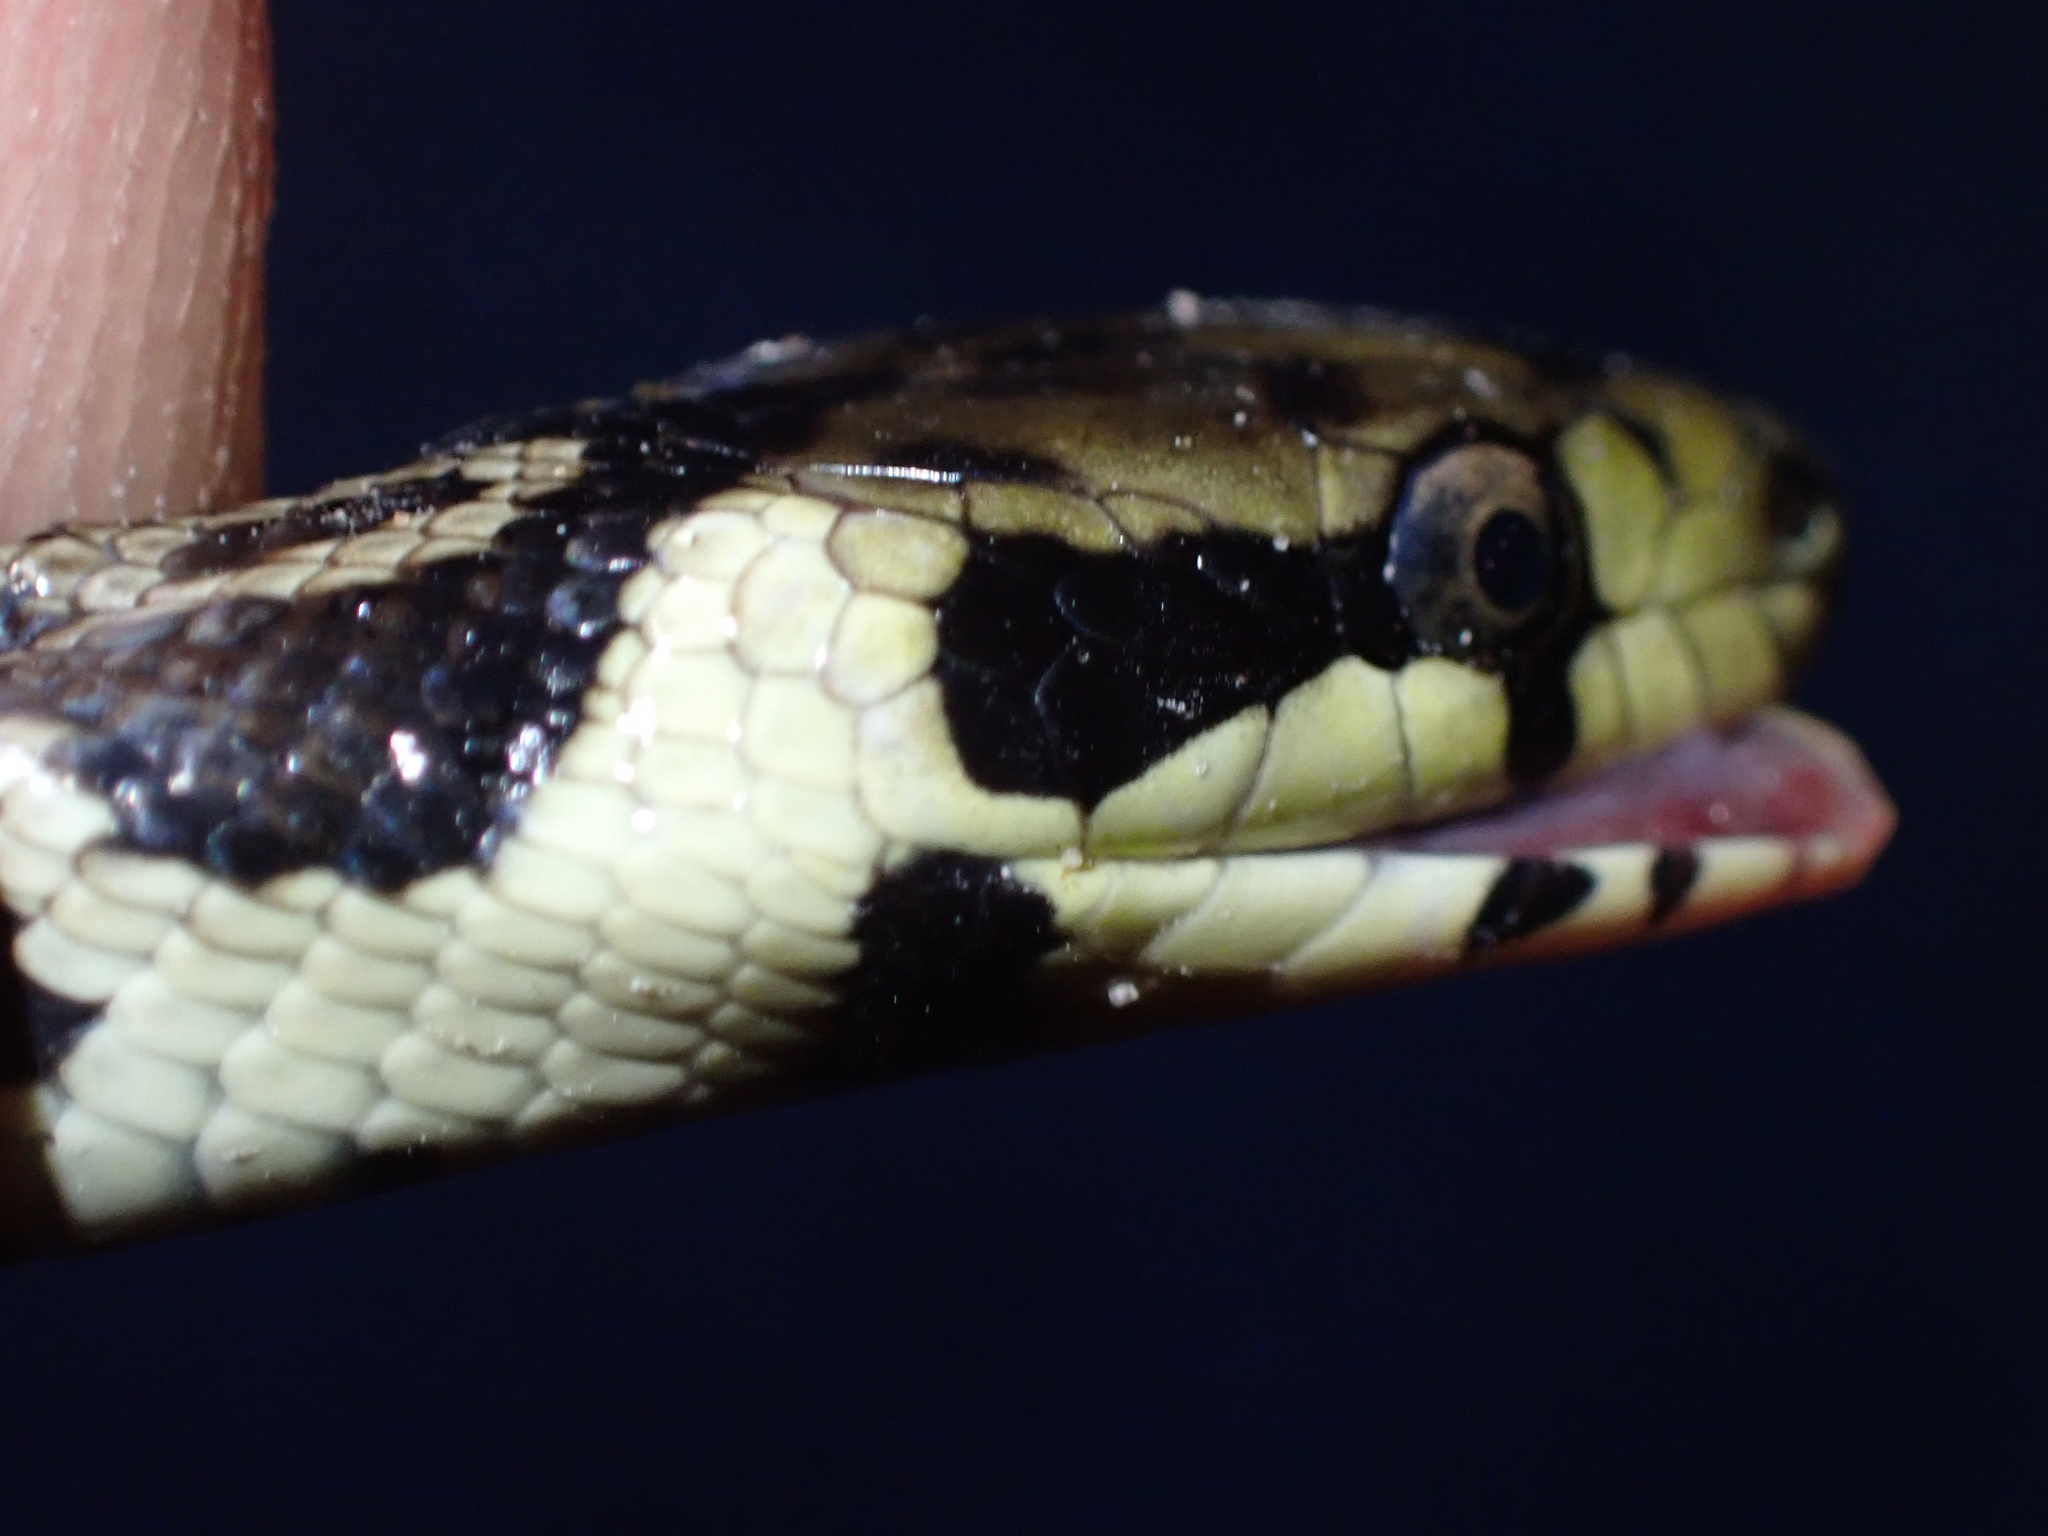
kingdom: Animalia
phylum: Chordata
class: Squamata
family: Colubridae
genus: Zamenis
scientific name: Zamenis longissimus
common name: Aesculapean snake
